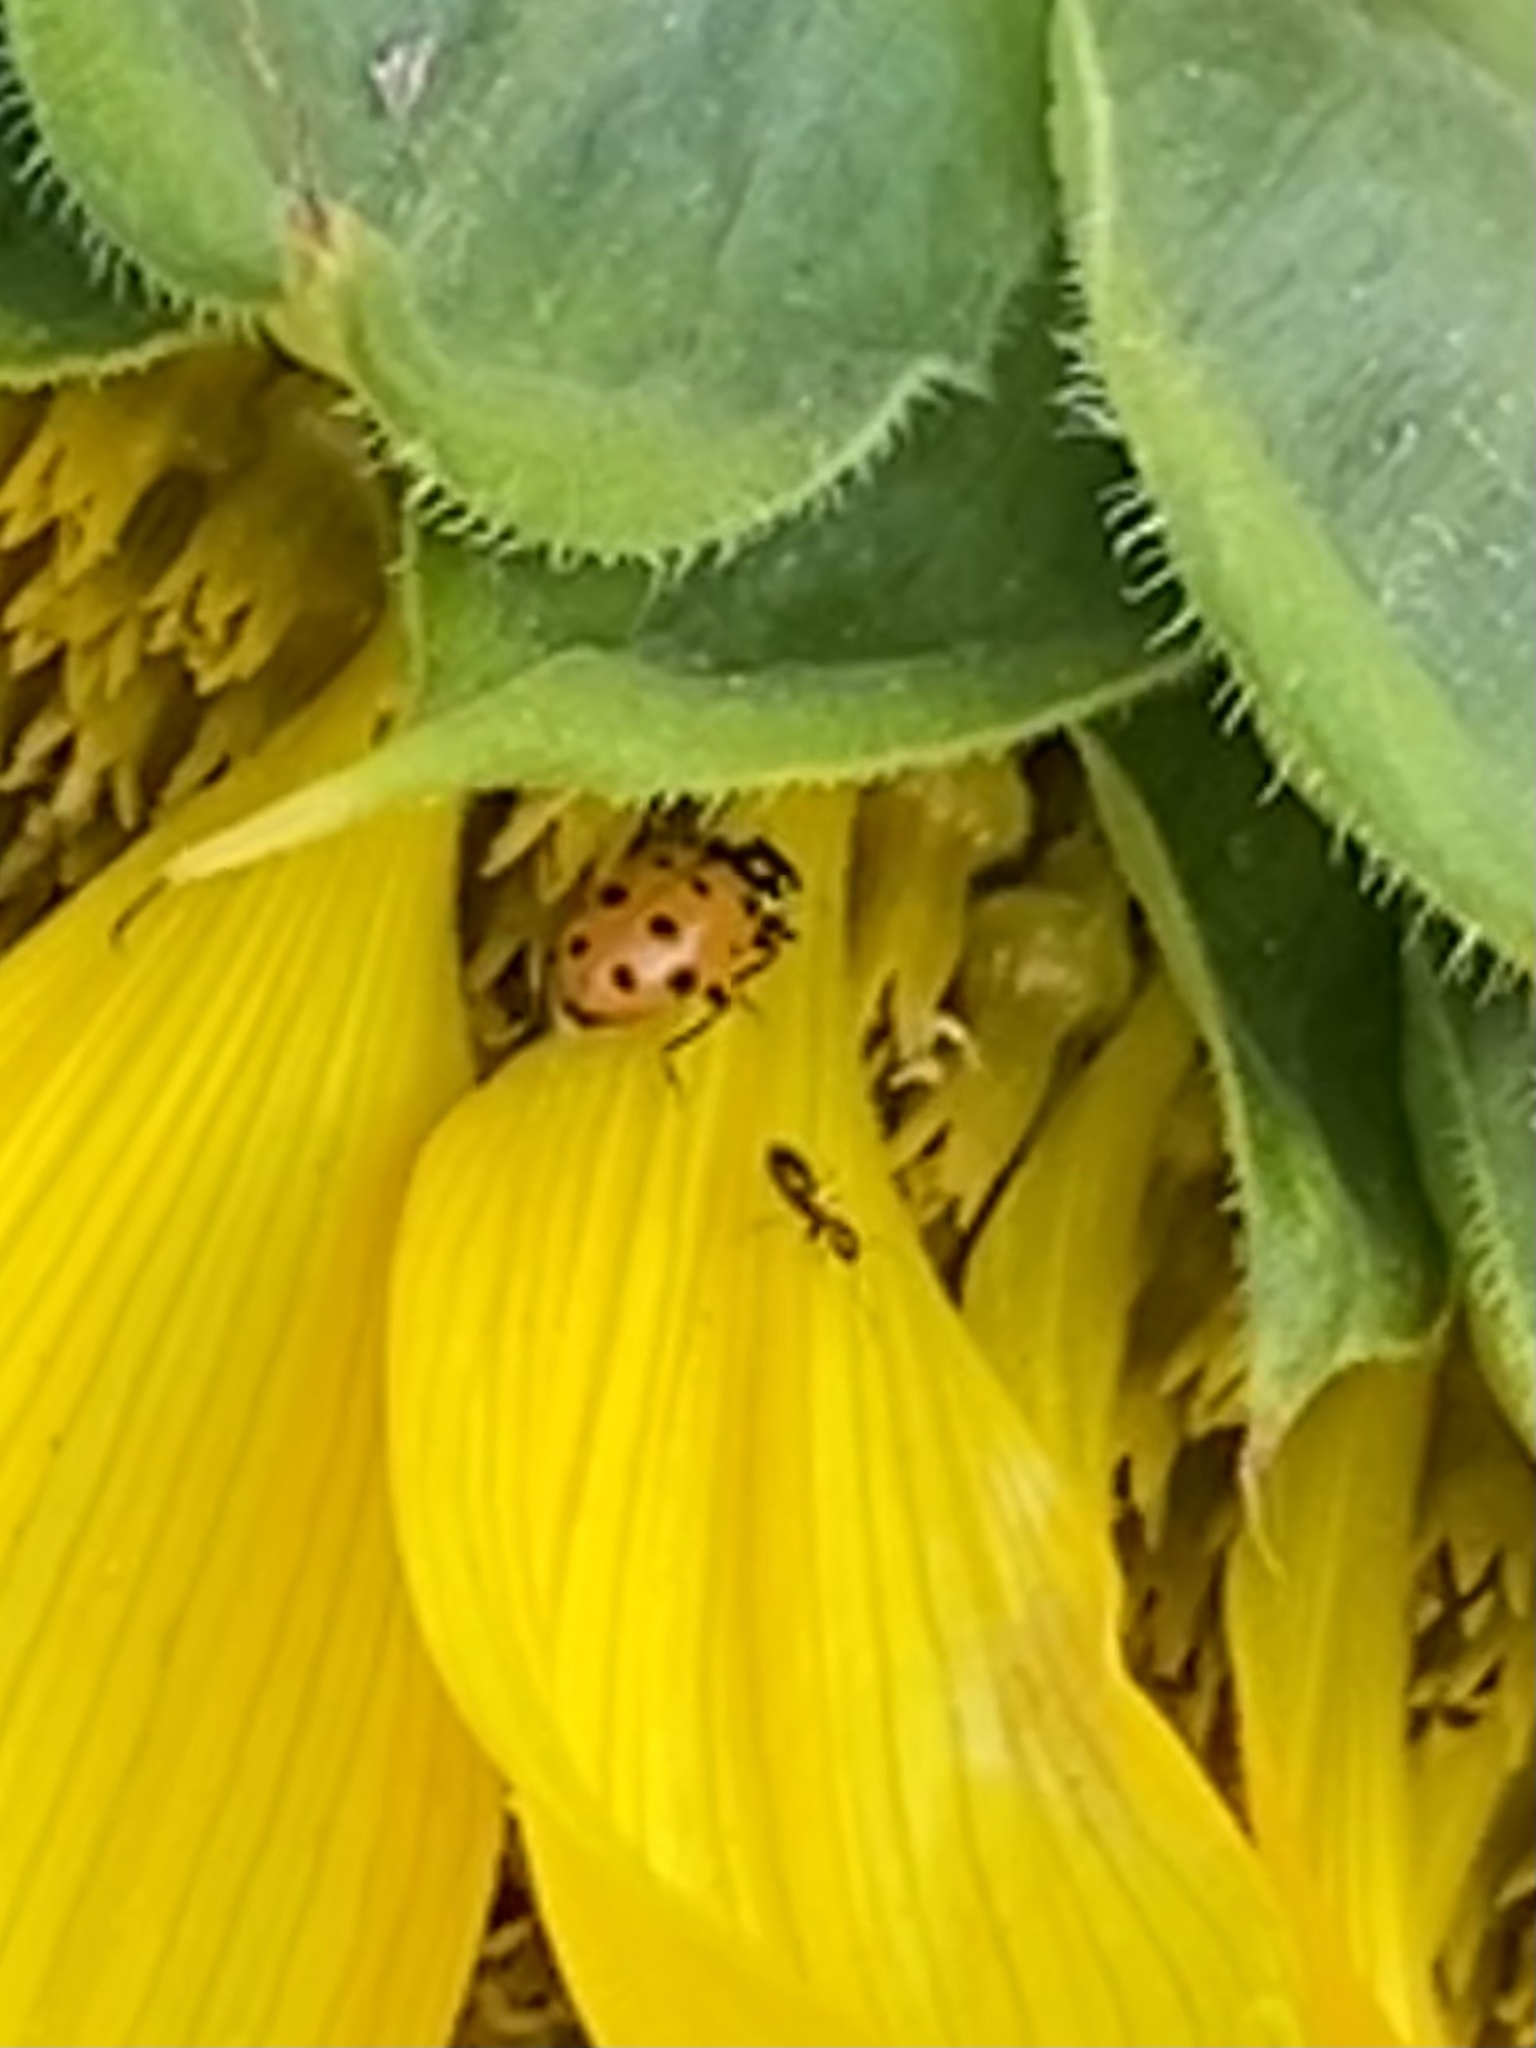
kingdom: Animalia
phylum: Arthropoda
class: Insecta
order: Coleoptera
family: Coccinellidae
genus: Hippodamia
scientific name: Hippodamia convergens
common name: Convergent lady beetle
